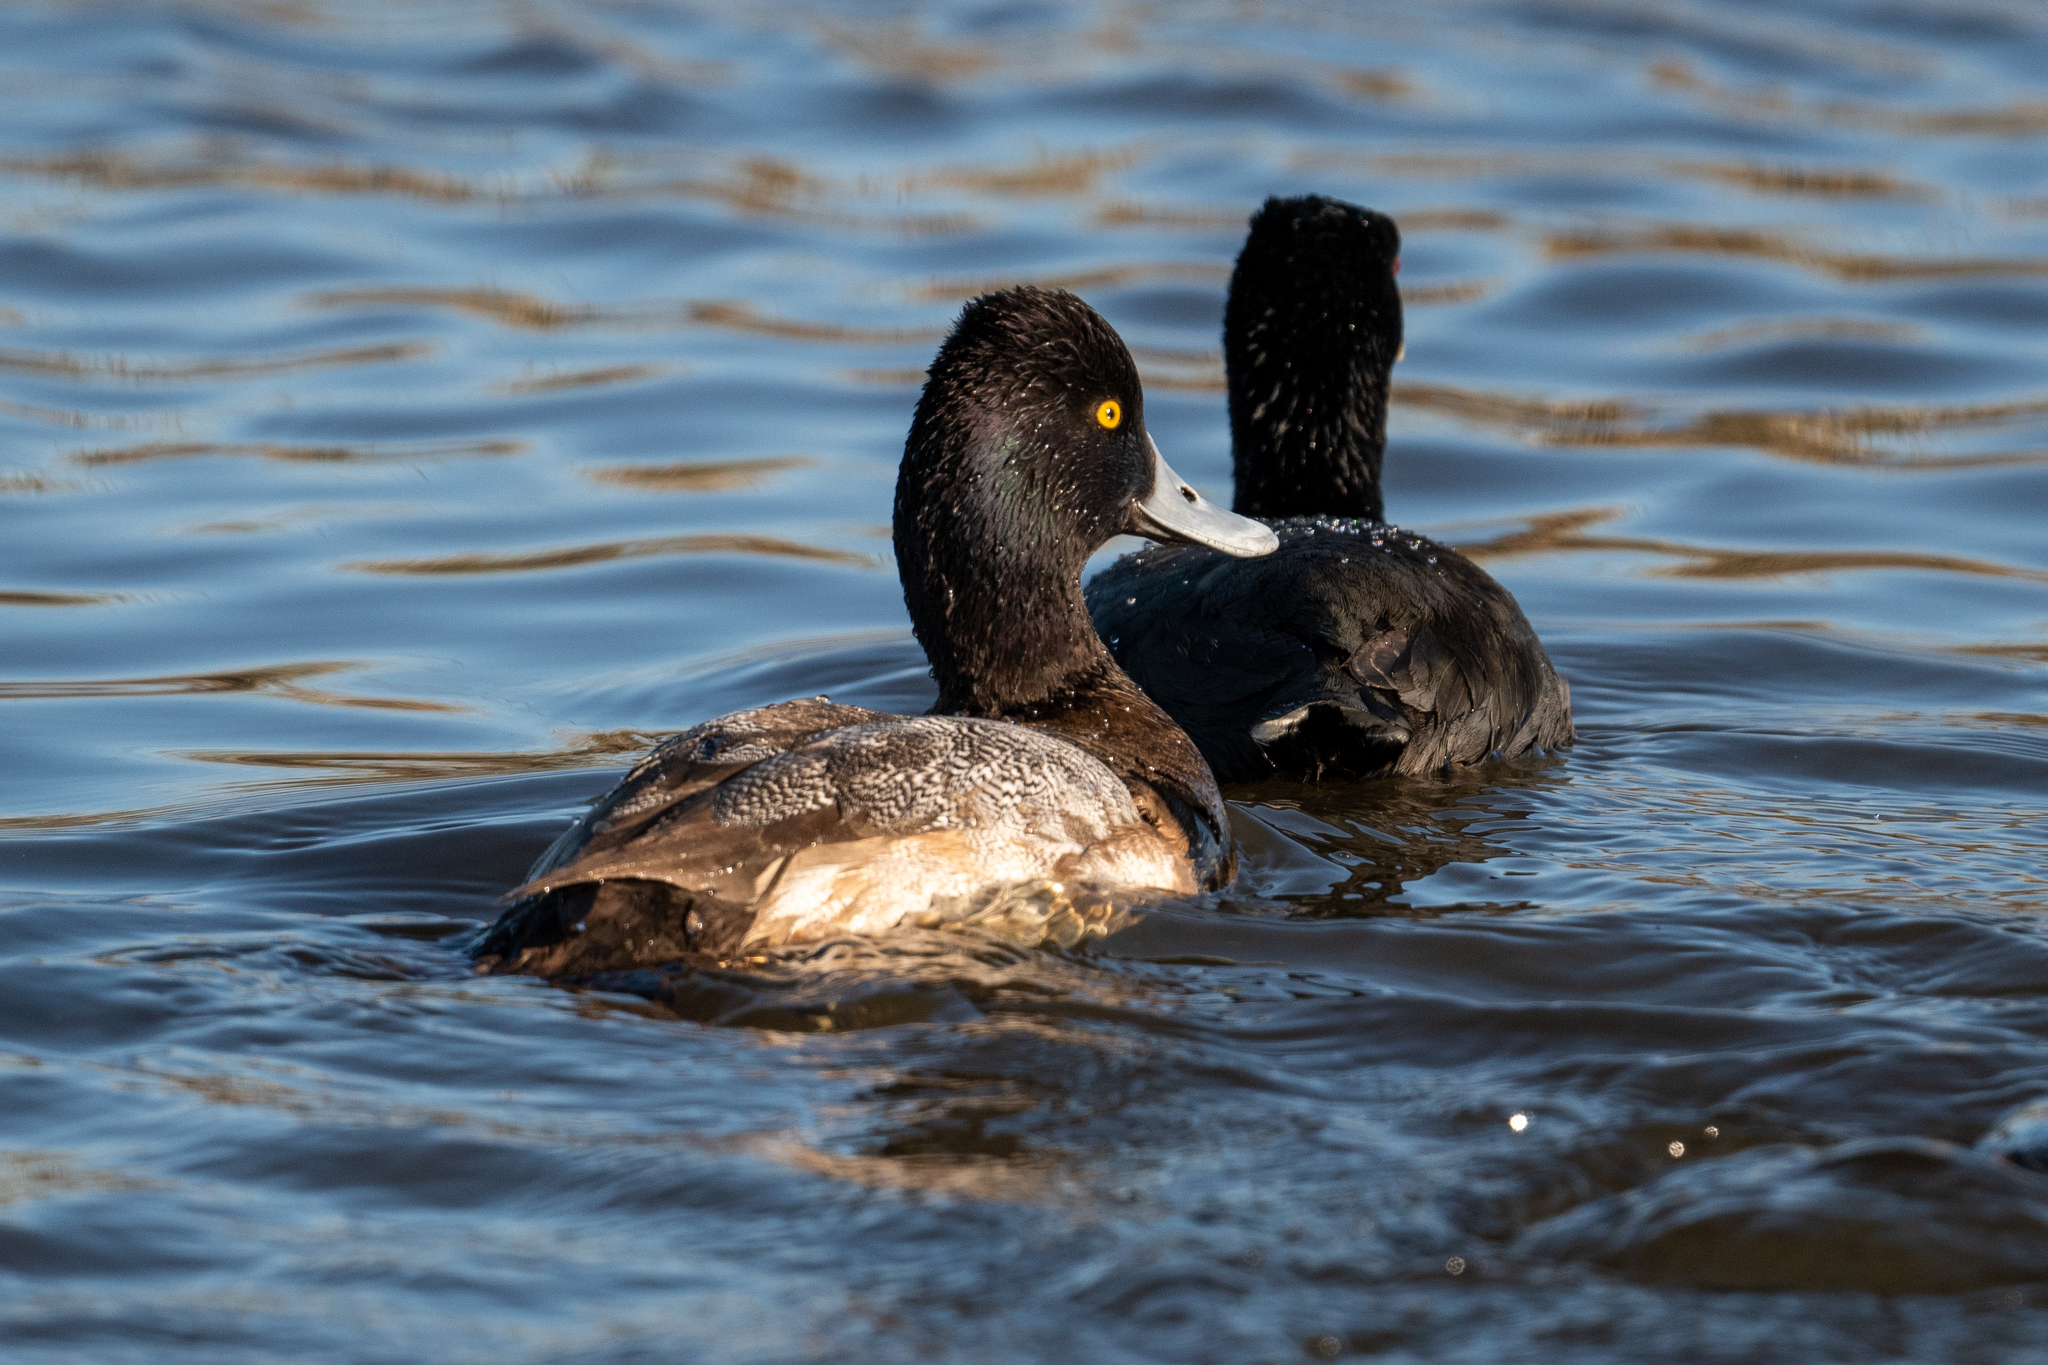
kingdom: Animalia
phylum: Chordata
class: Aves
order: Anseriformes
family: Anatidae
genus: Aythya
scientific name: Aythya affinis
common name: Lesser scaup
